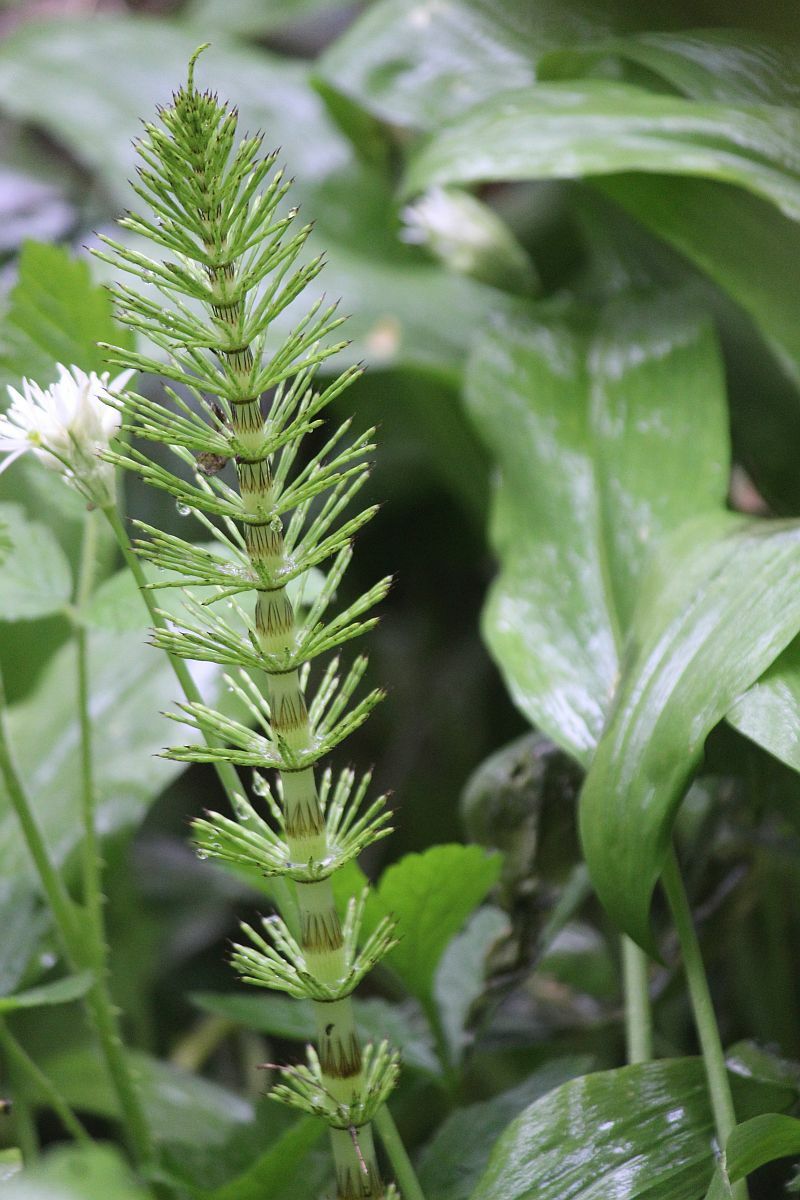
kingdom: Plantae
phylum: Tracheophyta
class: Polypodiopsida
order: Equisetales
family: Equisetaceae
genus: Equisetum
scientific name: Equisetum telmateia
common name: Great horsetail
